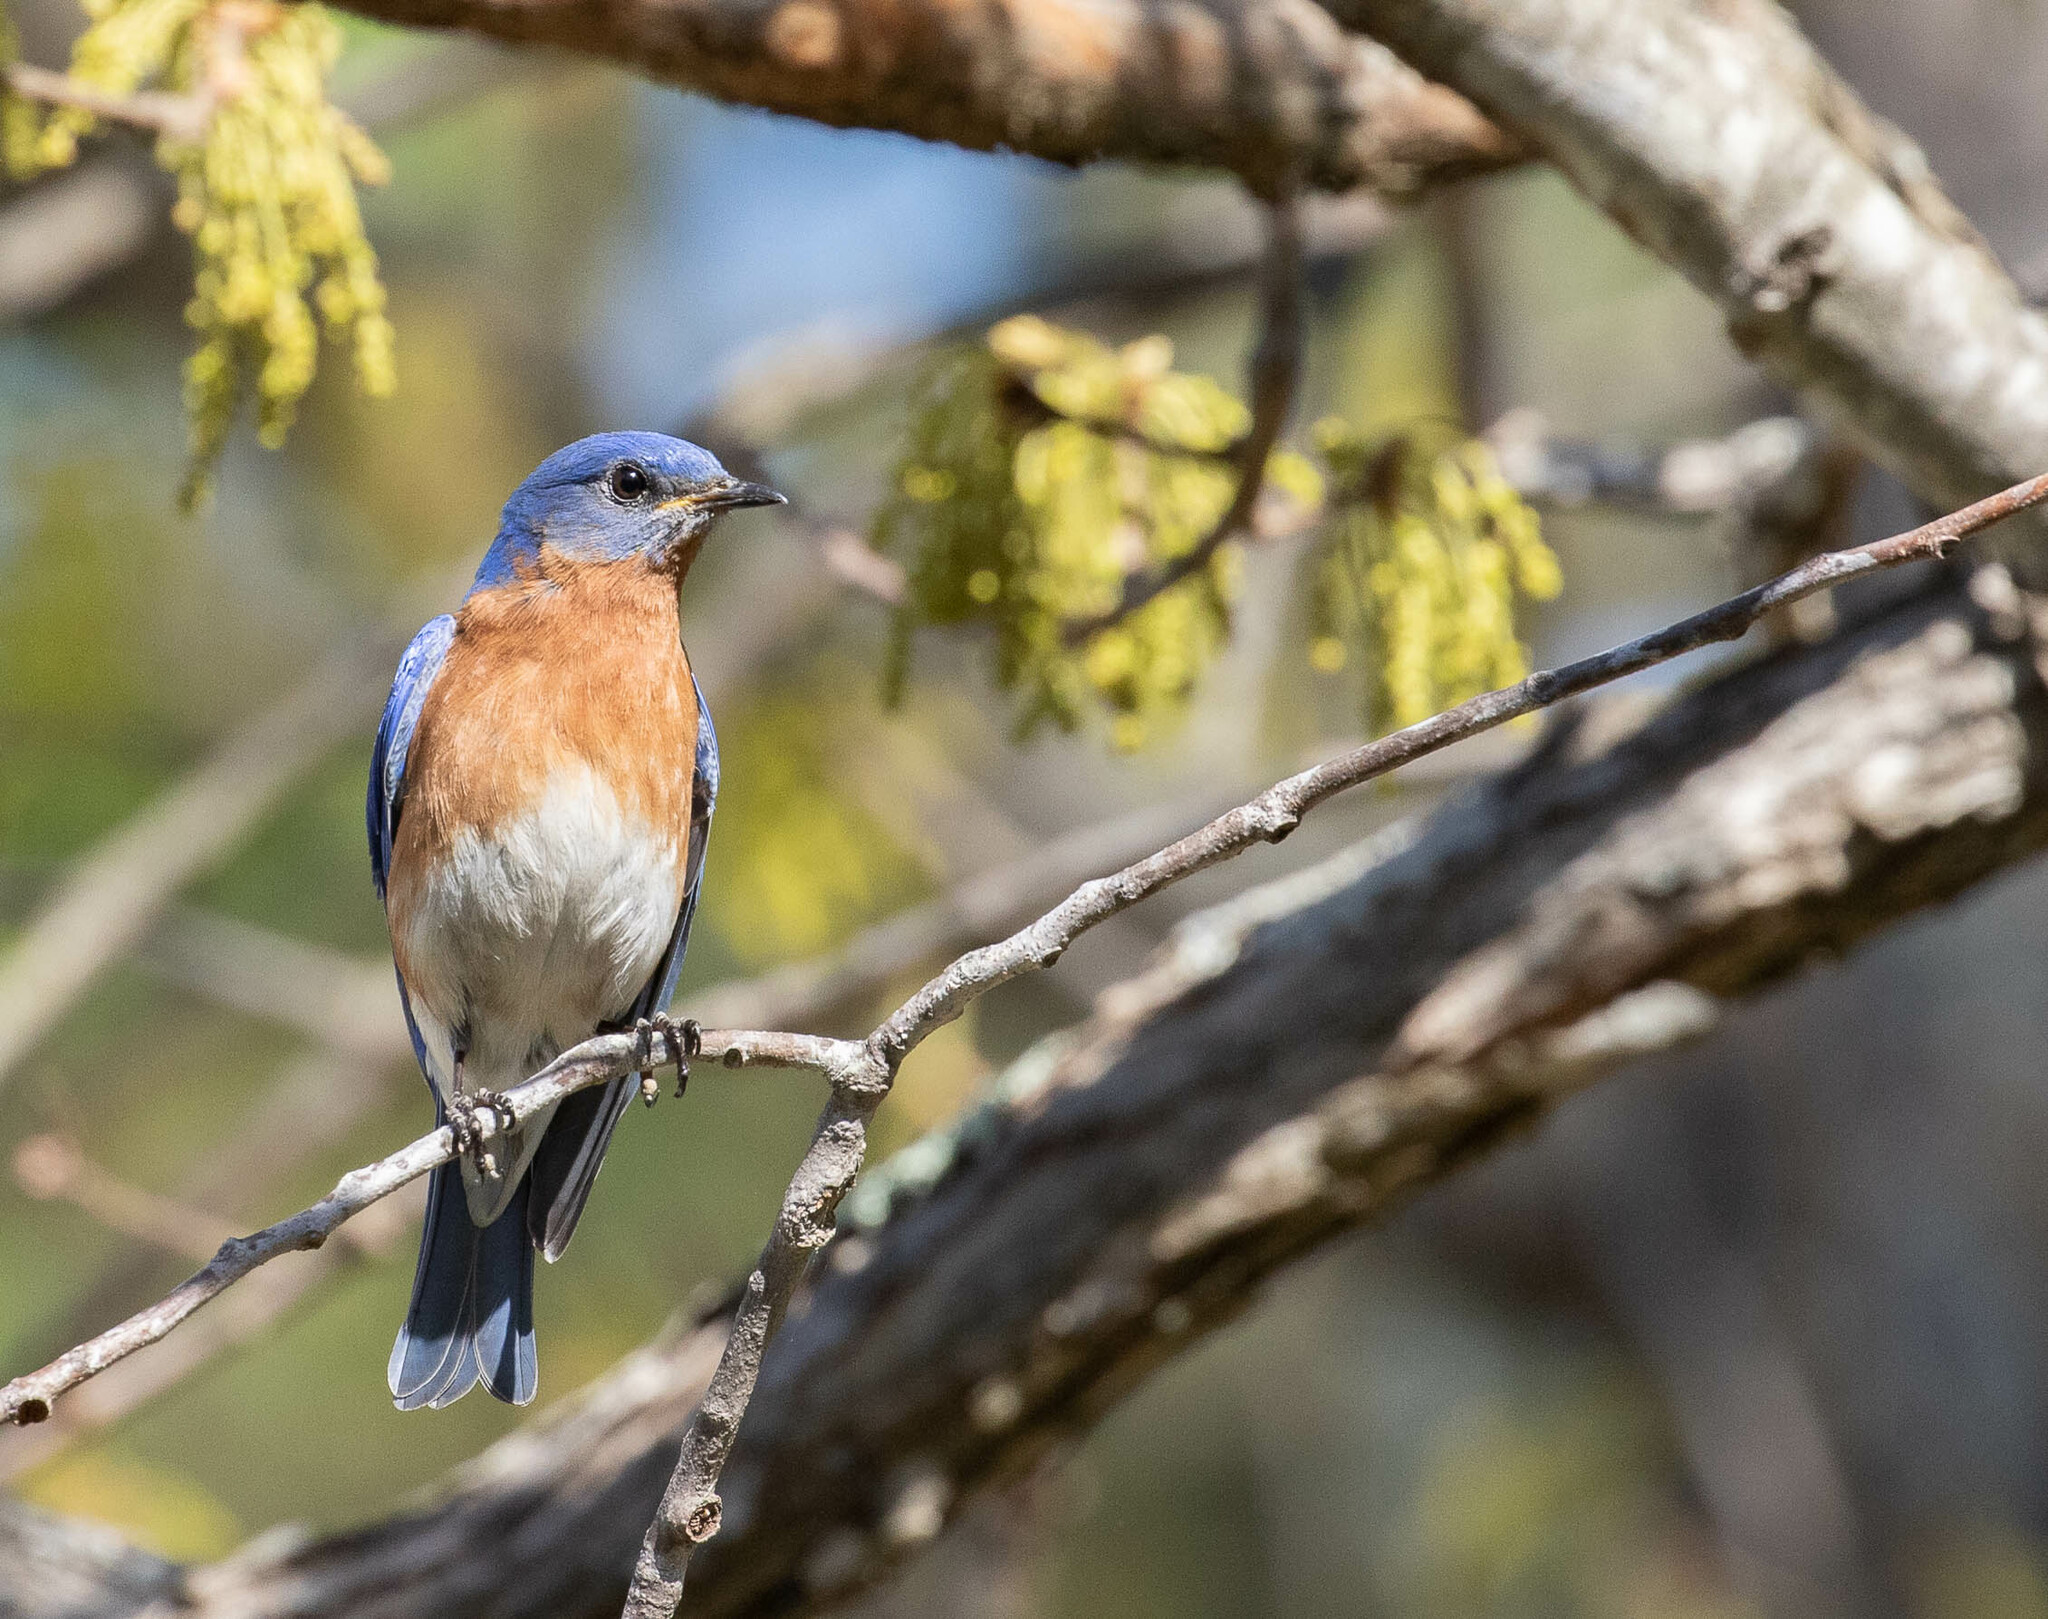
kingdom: Animalia
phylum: Chordata
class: Aves
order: Passeriformes
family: Turdidae
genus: Sialia
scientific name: Sialia sialis
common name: Eastern bluebird
